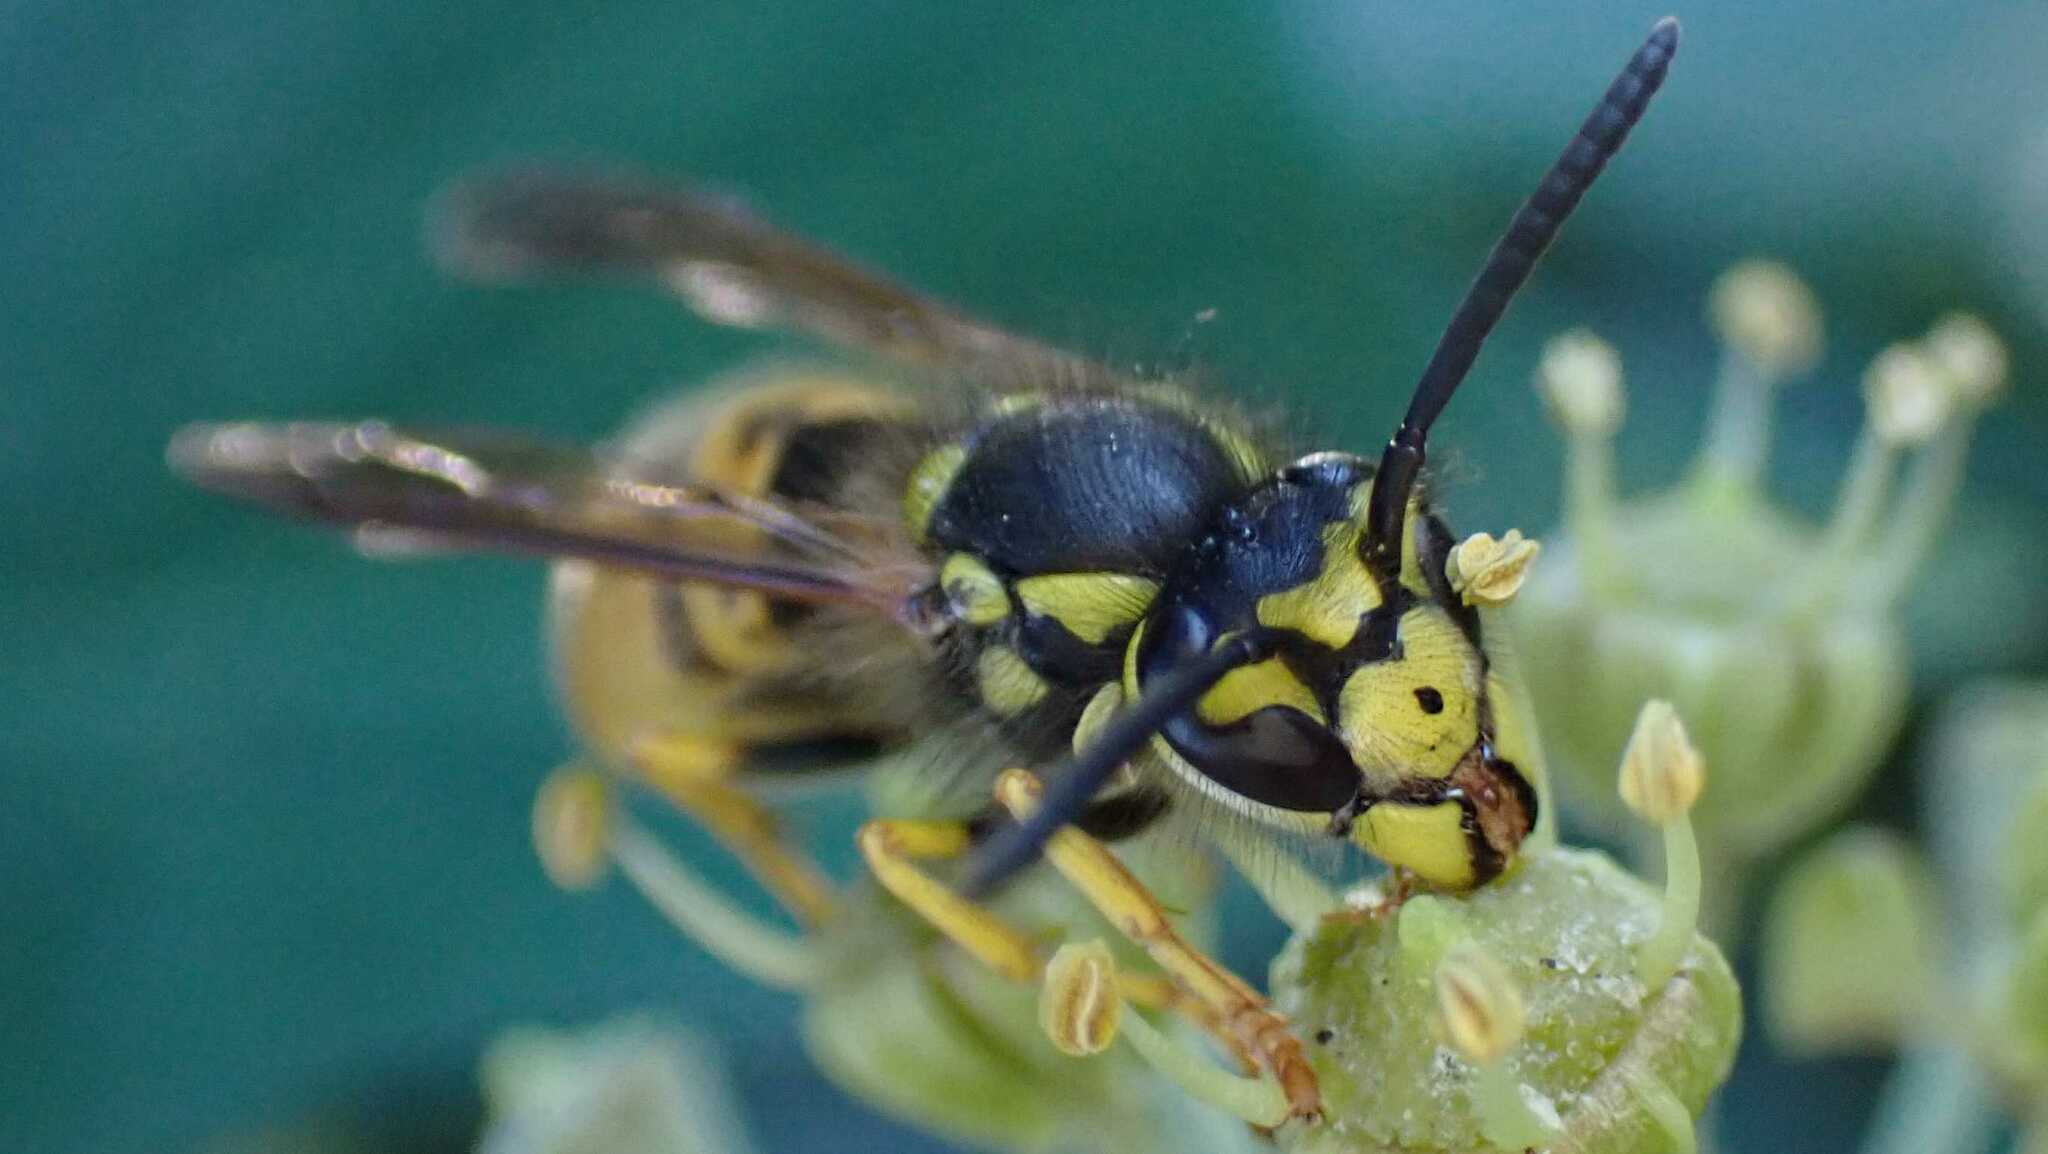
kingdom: Animalia
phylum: Arthropoda
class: Insecta
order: Hymenoptera
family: Vespidae
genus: Vespula
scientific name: Vespula germanica
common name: German wasp
